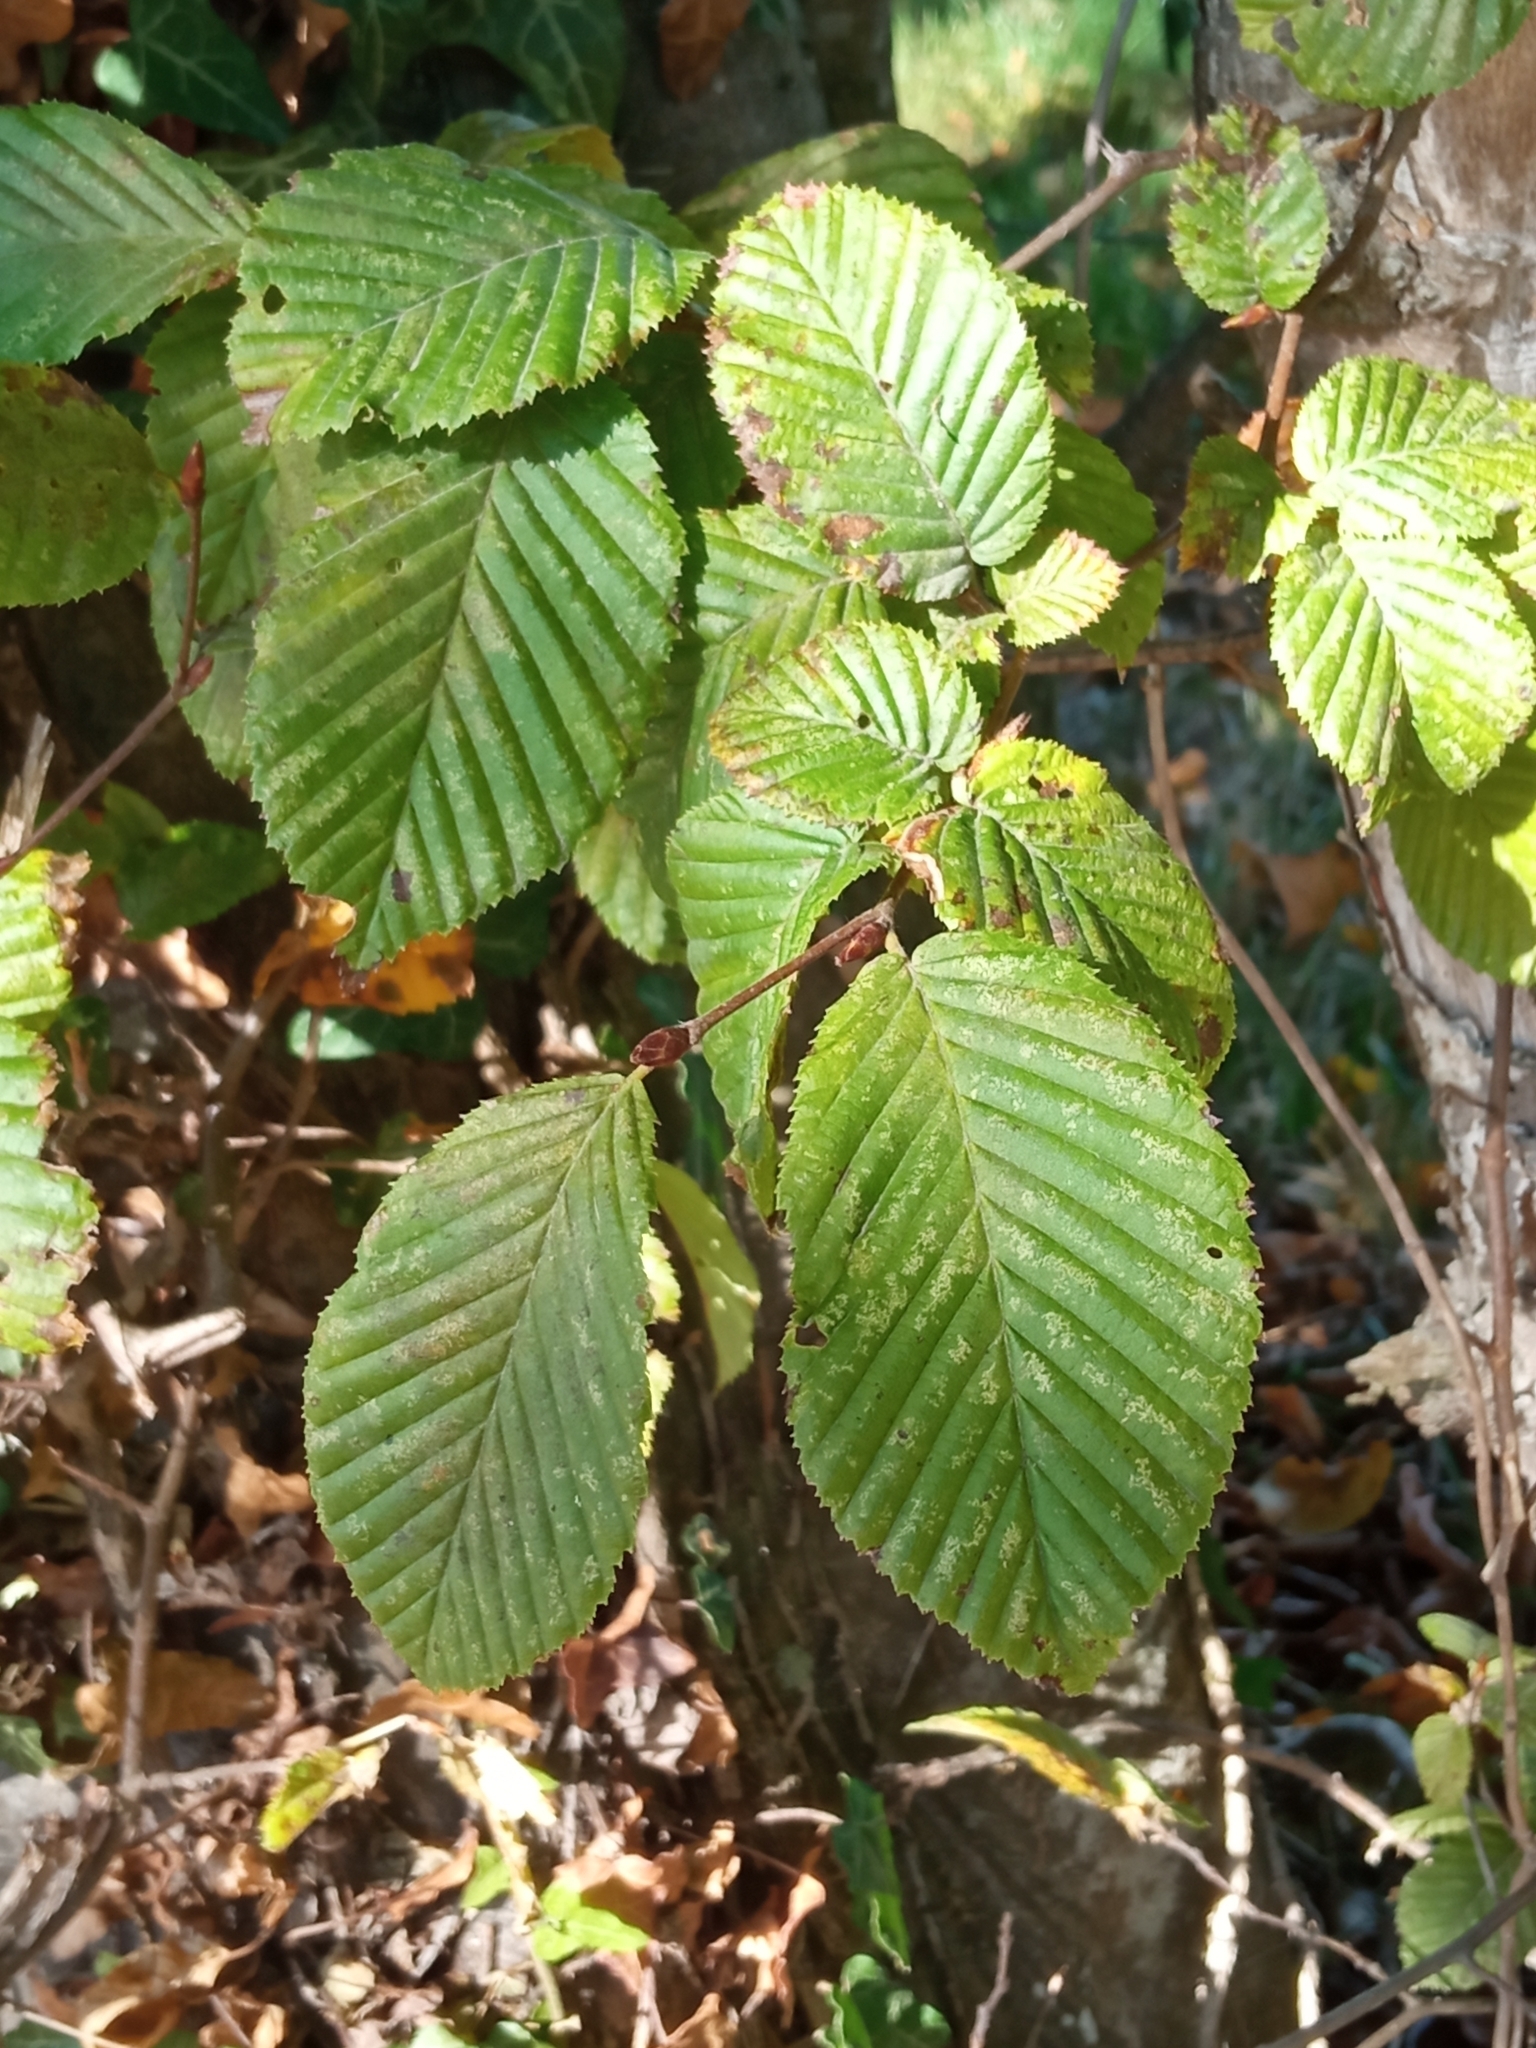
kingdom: Plantae
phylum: Tracheophyta
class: Magnoliopsida
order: Fagales
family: Betulaceae
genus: Carpinus
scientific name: Carpinus betulus
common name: Hornbeam
